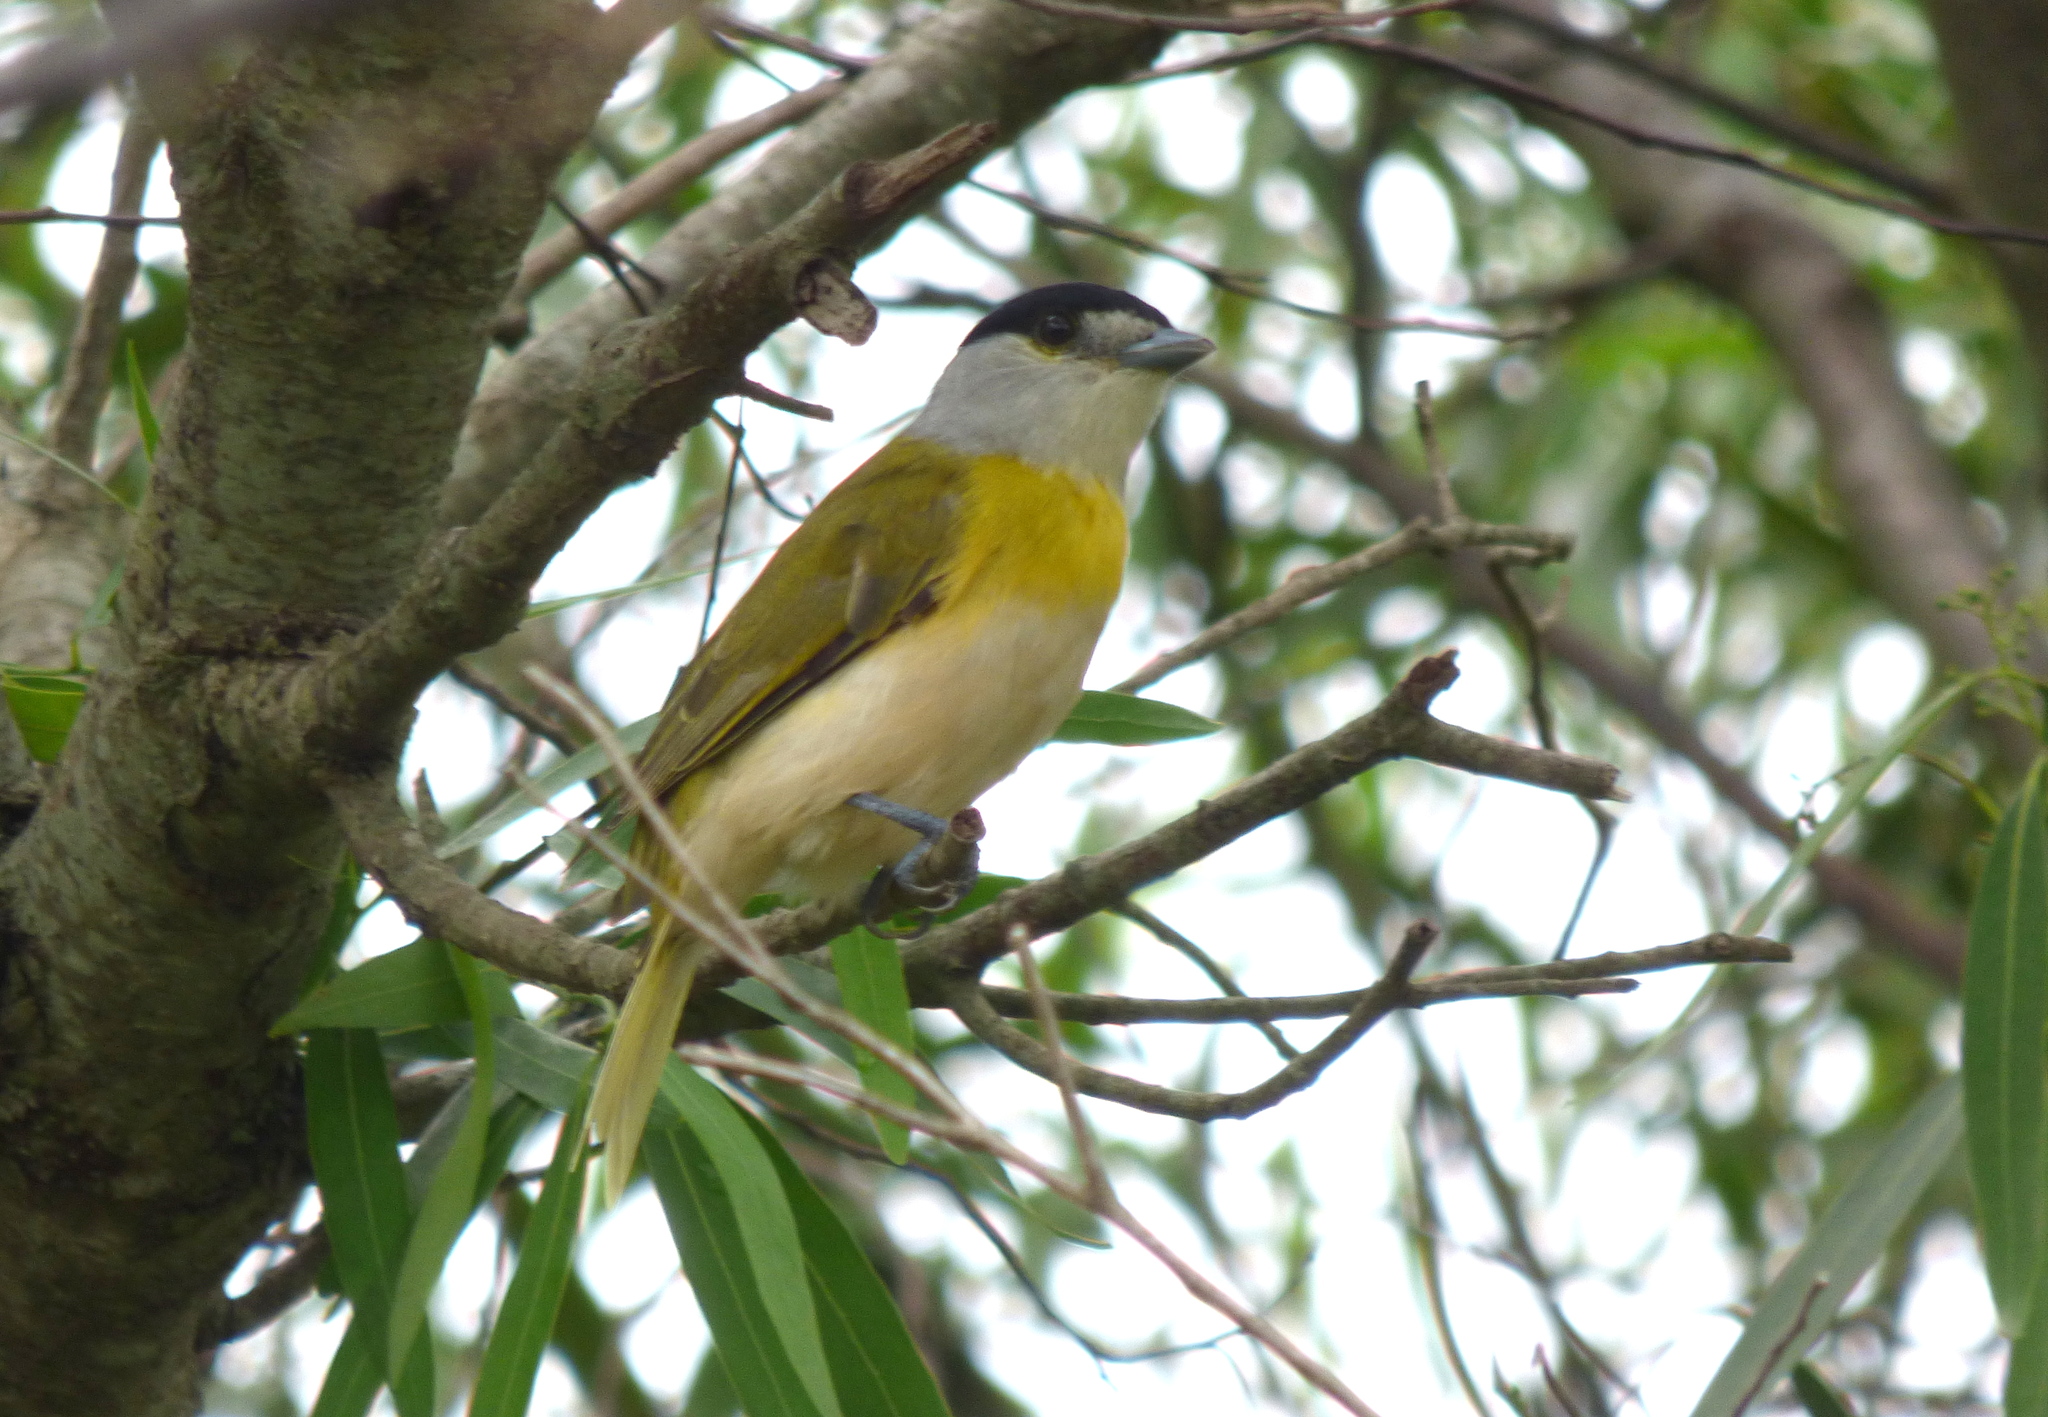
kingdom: Animalia
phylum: Chordata
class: Aves
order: Passeriformes
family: Cotingidae
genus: Pachyramphus
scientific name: Pachyramphus viridis
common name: Green-backed becard
